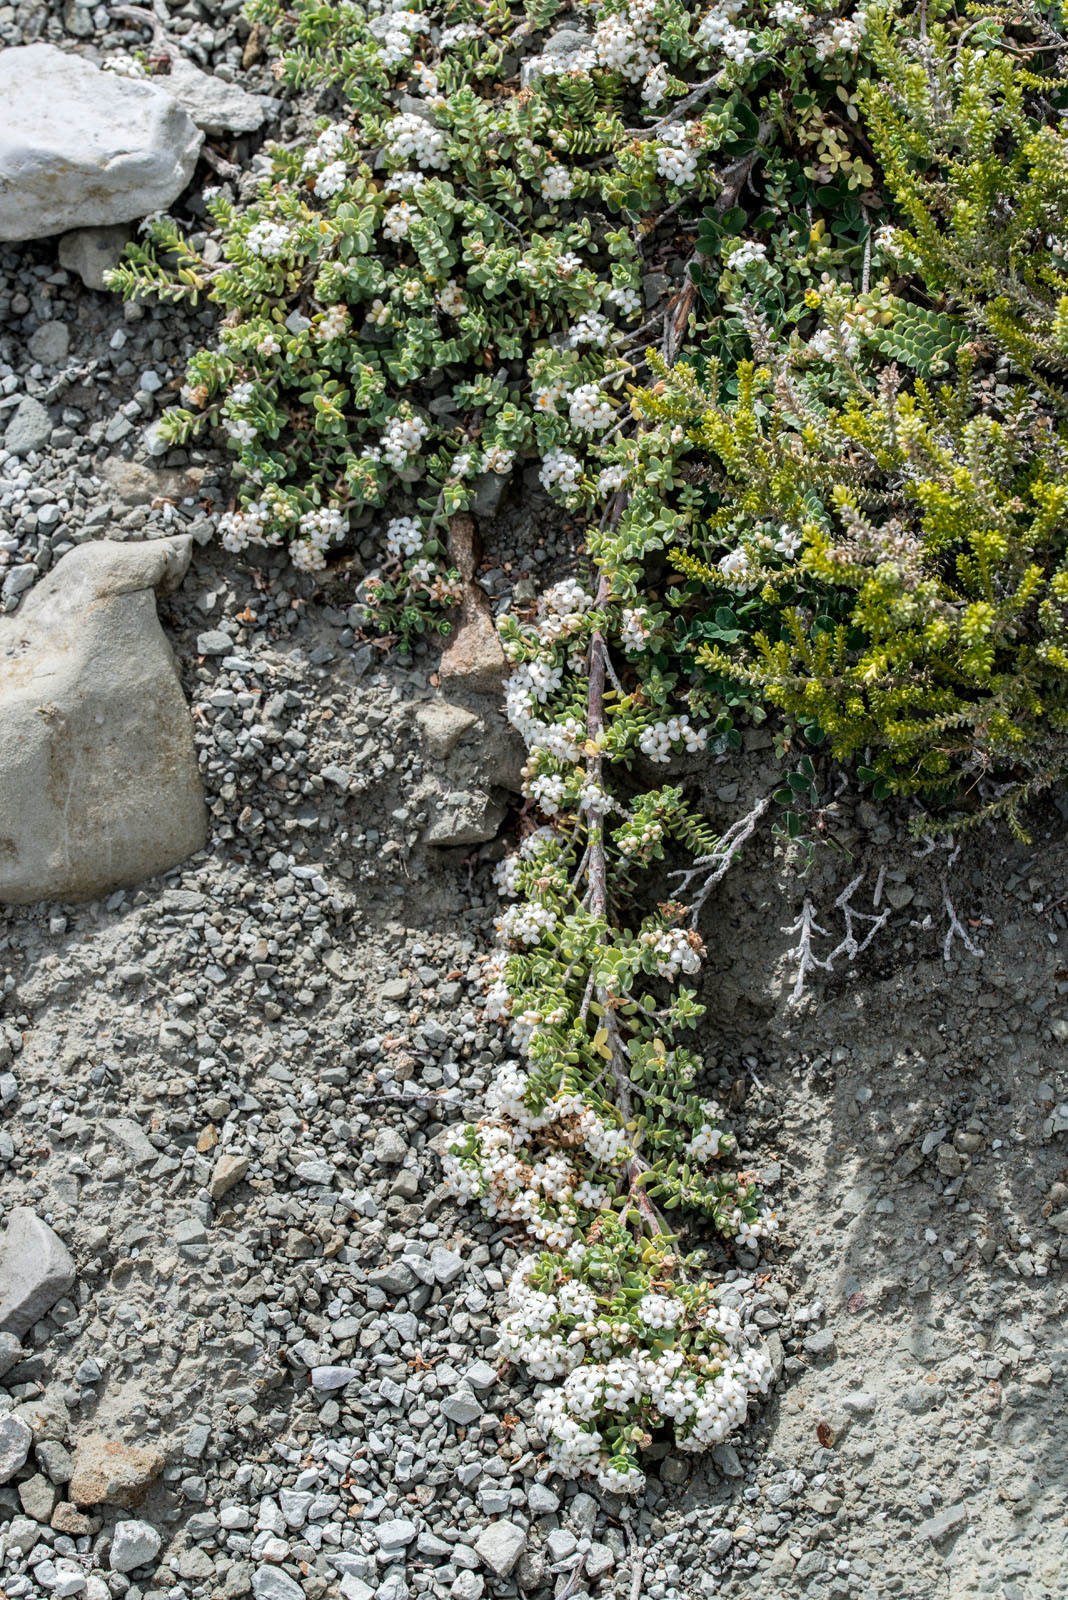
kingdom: Plantae
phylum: Tracheophyta
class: Magnoliopsida
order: Malvales
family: Thymelaeaceae
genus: Pimelea
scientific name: Pimelea carnosa
